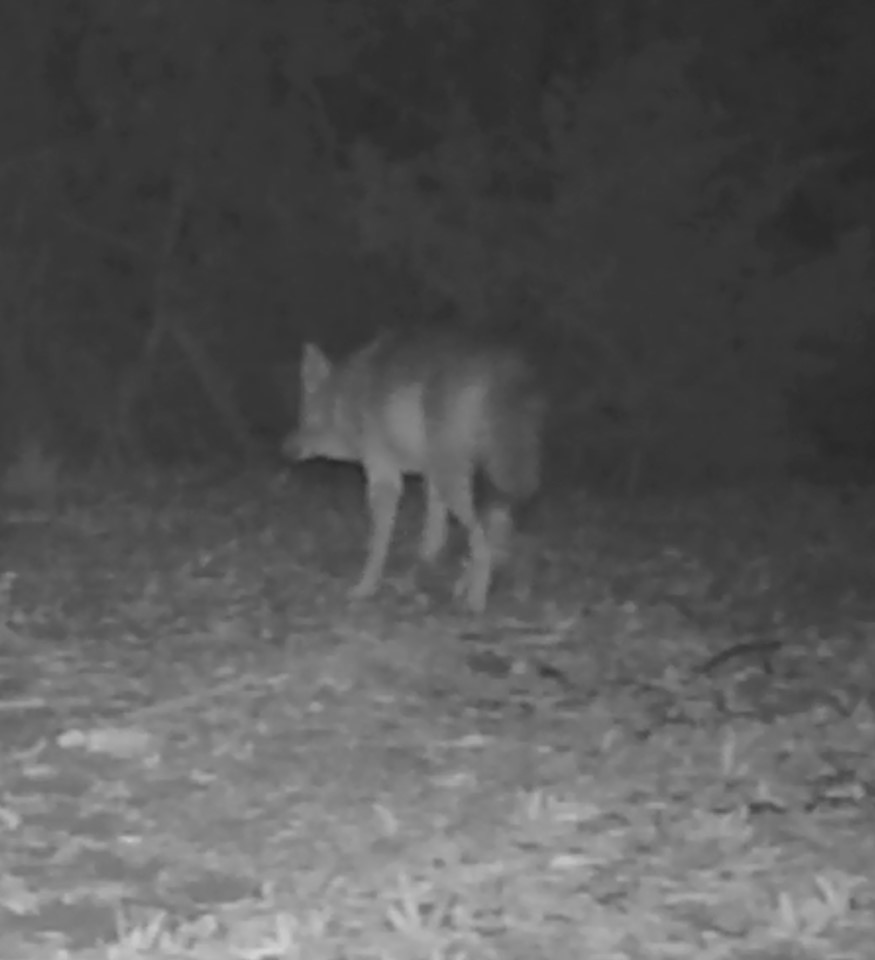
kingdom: Animalia
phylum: Chordata
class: Mammalia
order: Carnivora
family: Canidae
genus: Canis
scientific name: Canis latrans
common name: Coyote
